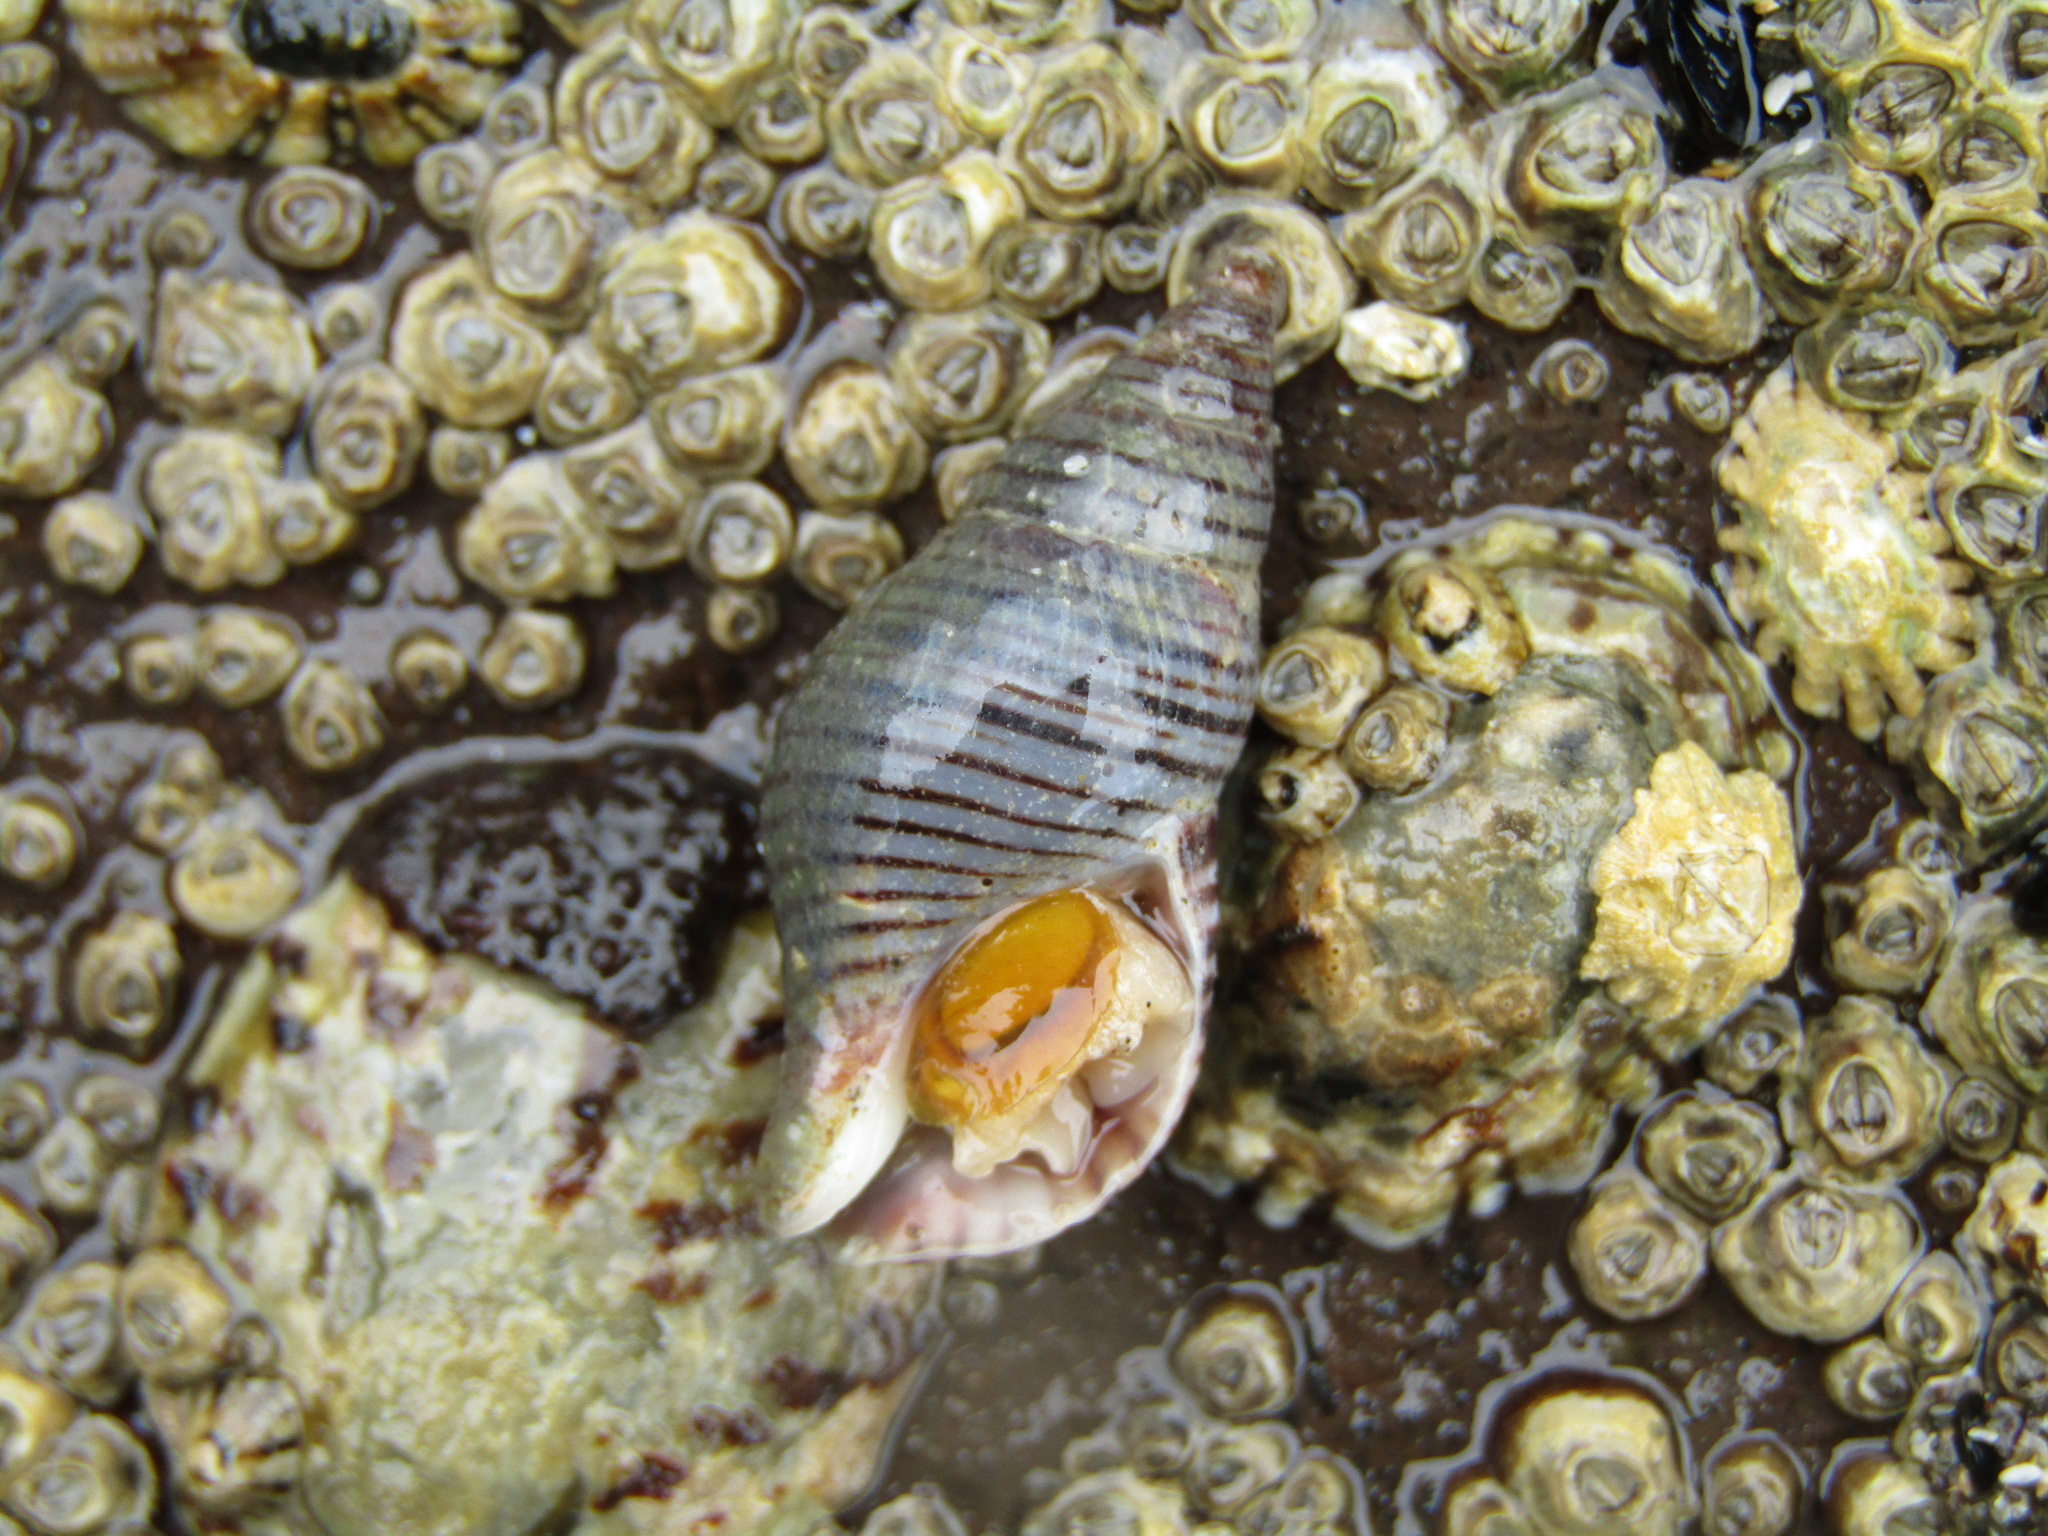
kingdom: Animalia
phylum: Mollusca
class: Gastropoda
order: Neogastropoda
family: Tudiclidae
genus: Buccinulum
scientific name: Buccinulum littorinoides
